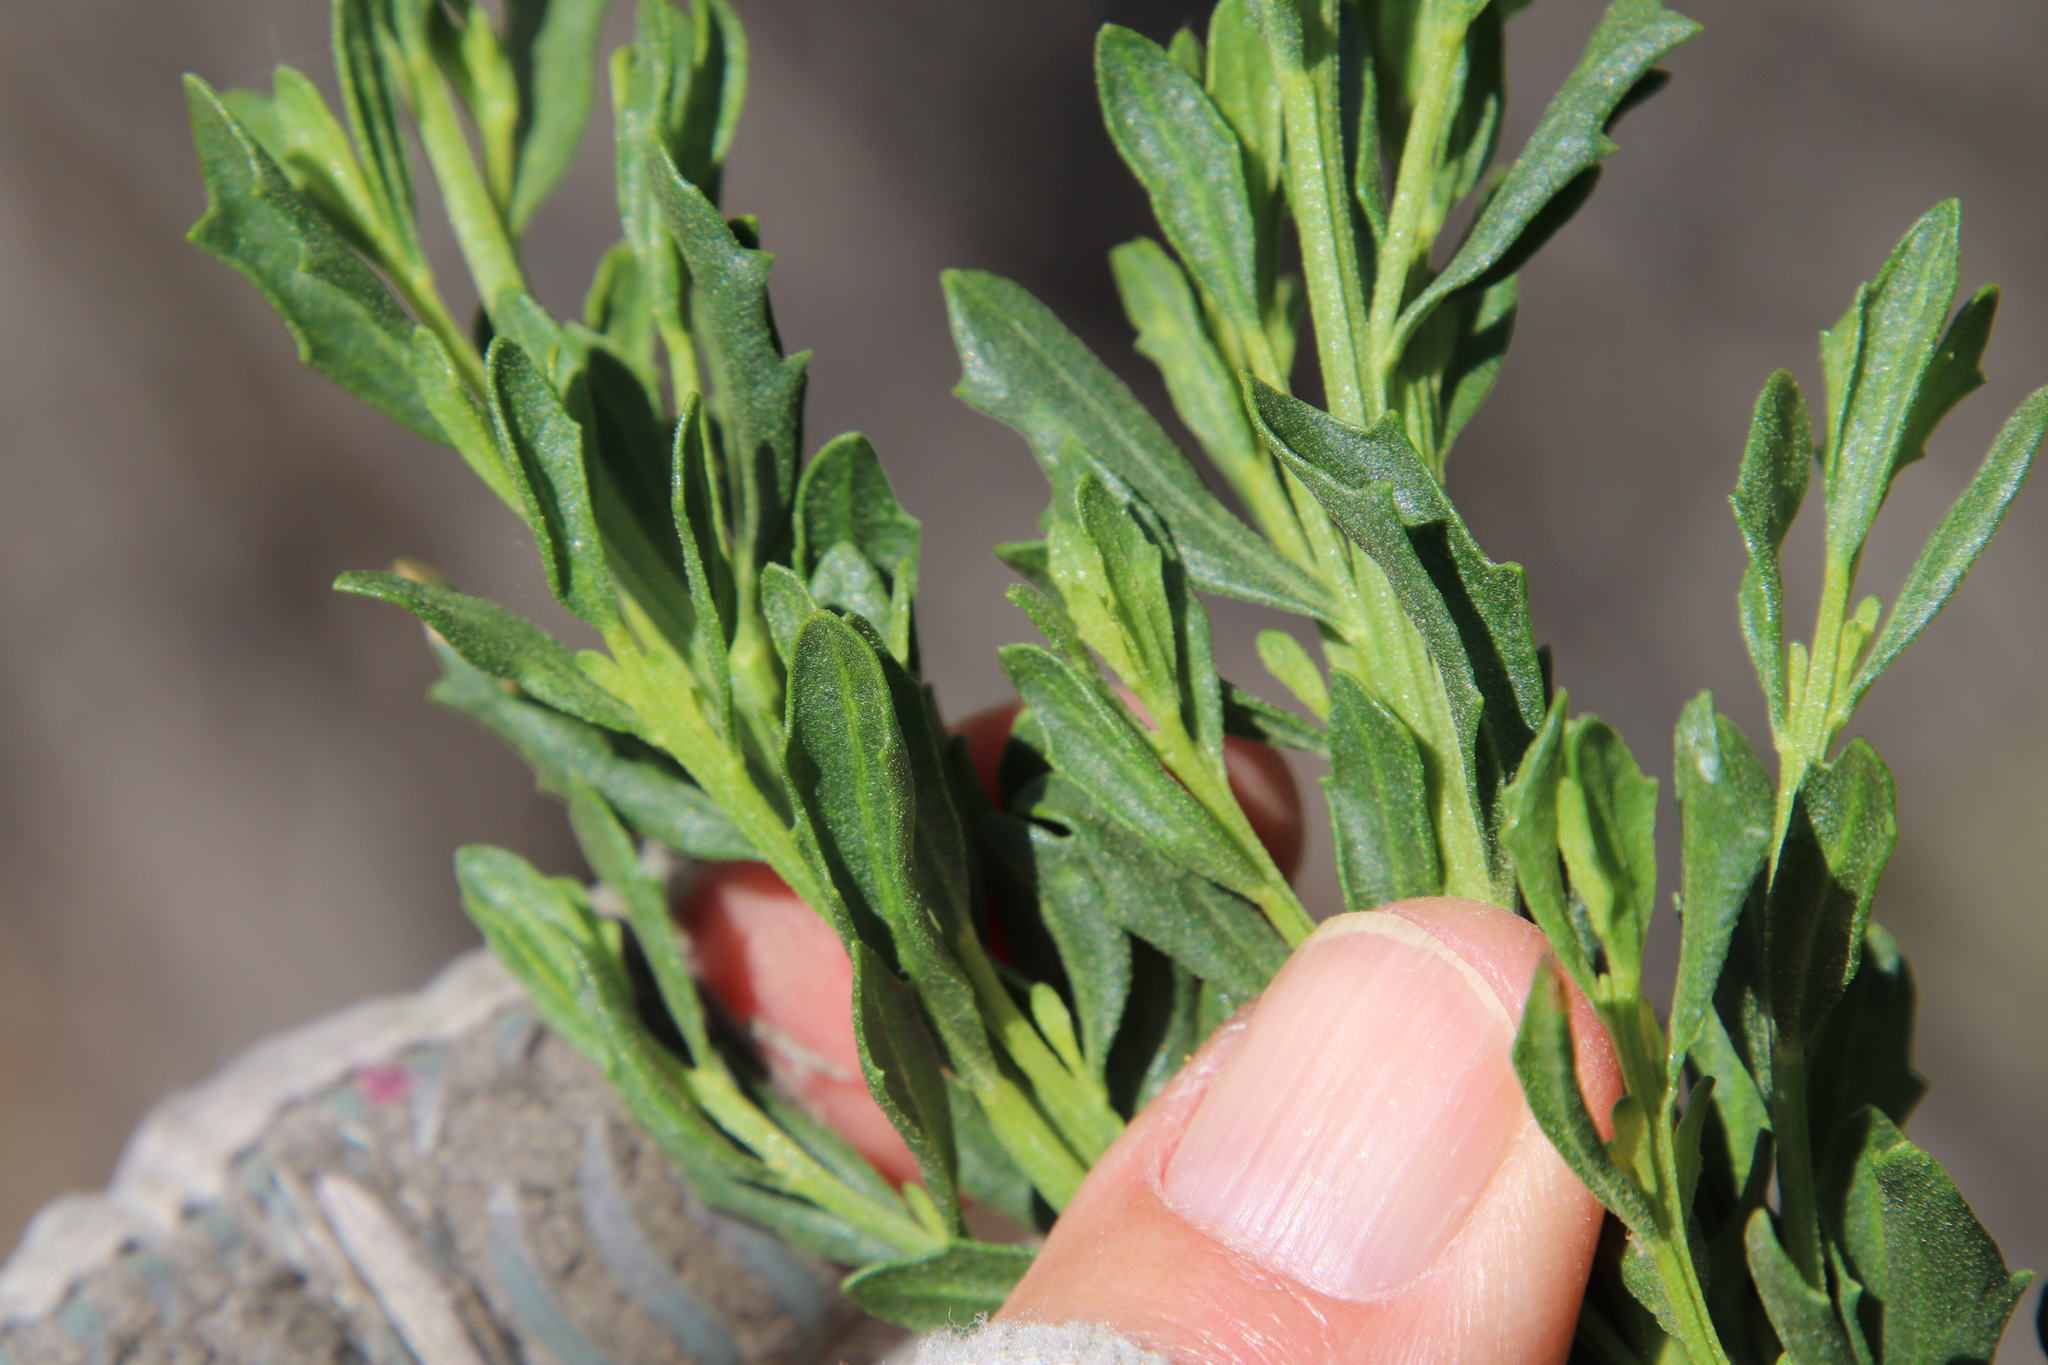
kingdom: Plantae
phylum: Tracheophyta
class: Magnoliopsida
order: Asterales
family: Asteraceae
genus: Baccharis
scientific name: Baccharis pilularis
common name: Coyotebrush
